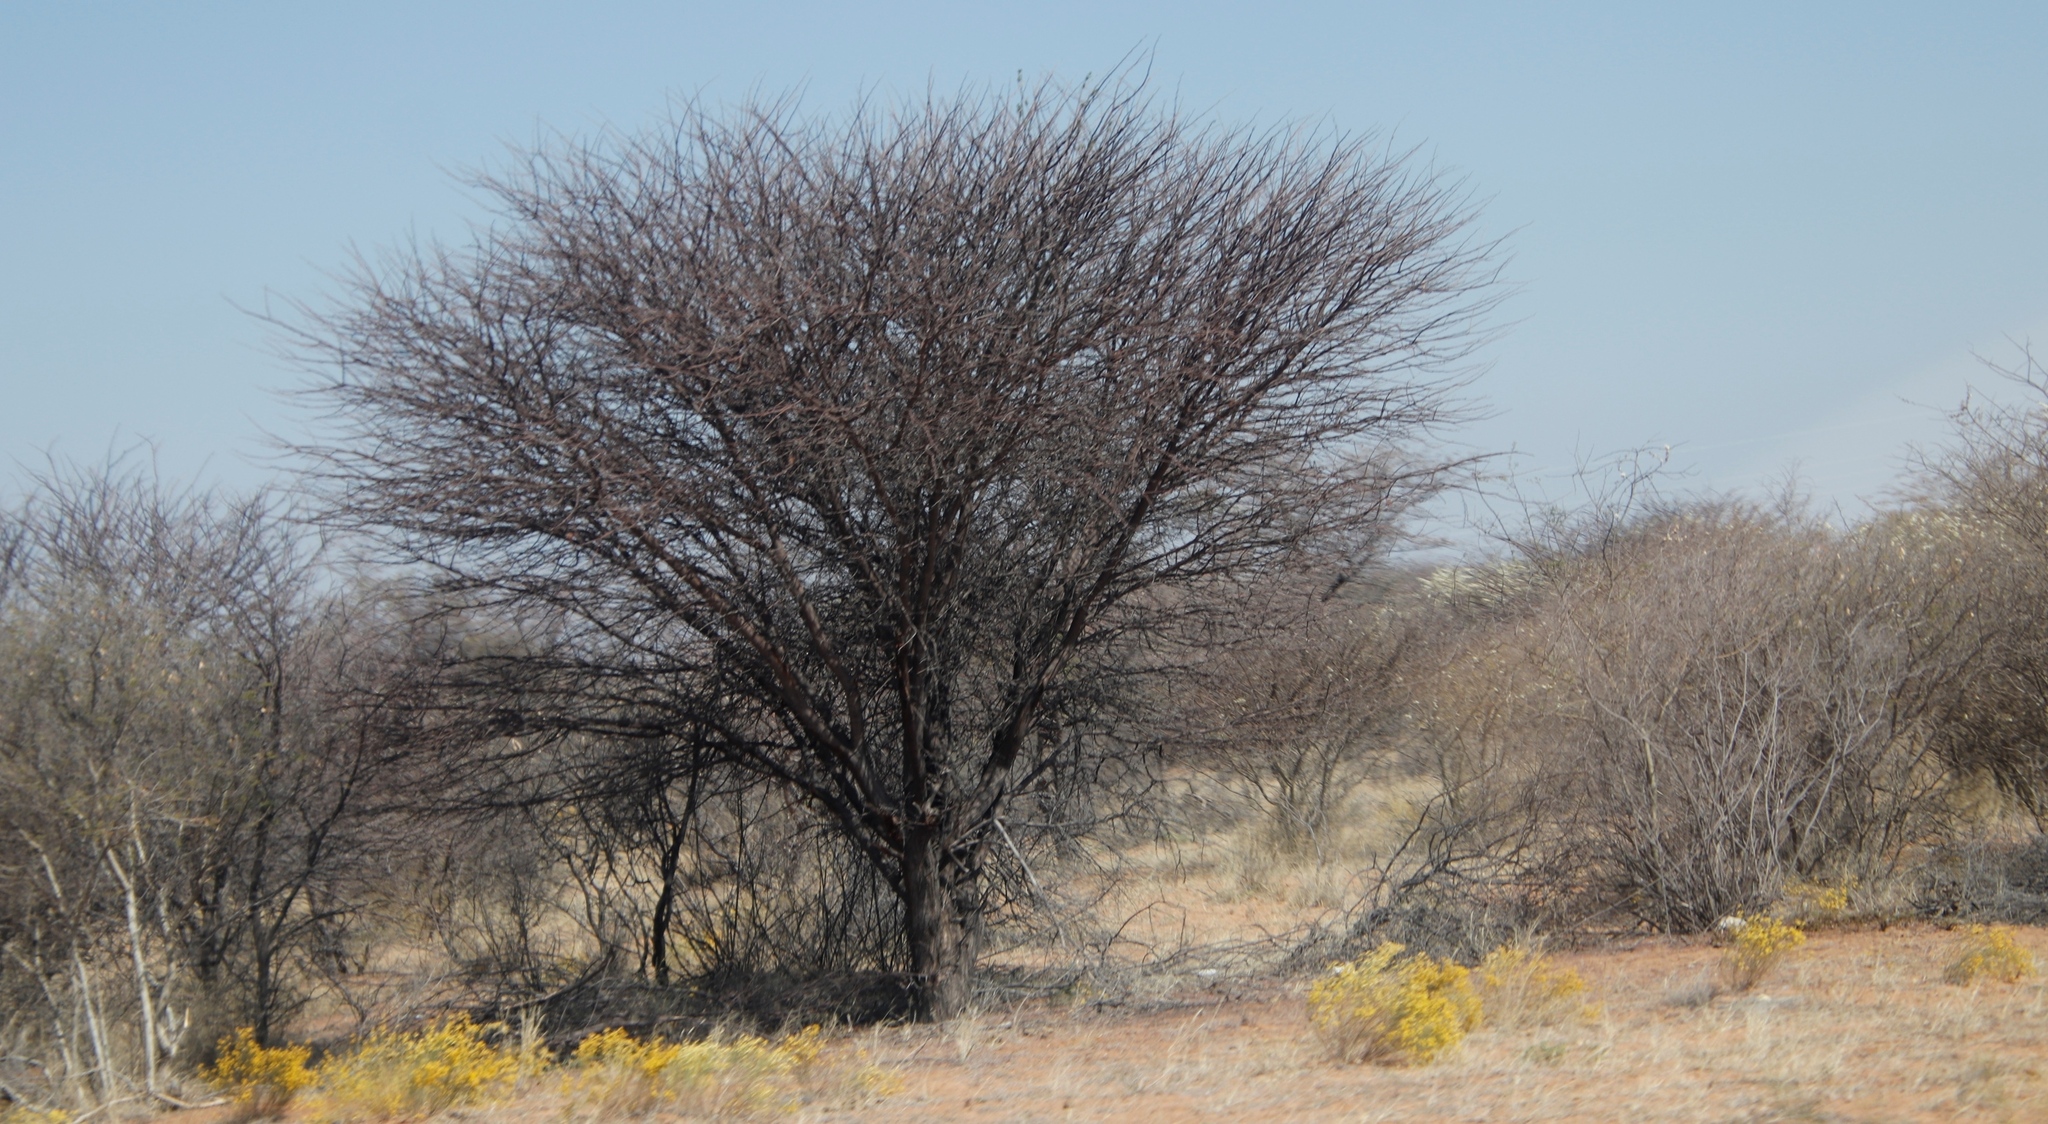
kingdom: Plantae
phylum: Tracheophyta
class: Magnoliopsida
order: Malvales
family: Thymelaeaceae
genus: Gnidia
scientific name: Gnidia polycephala
